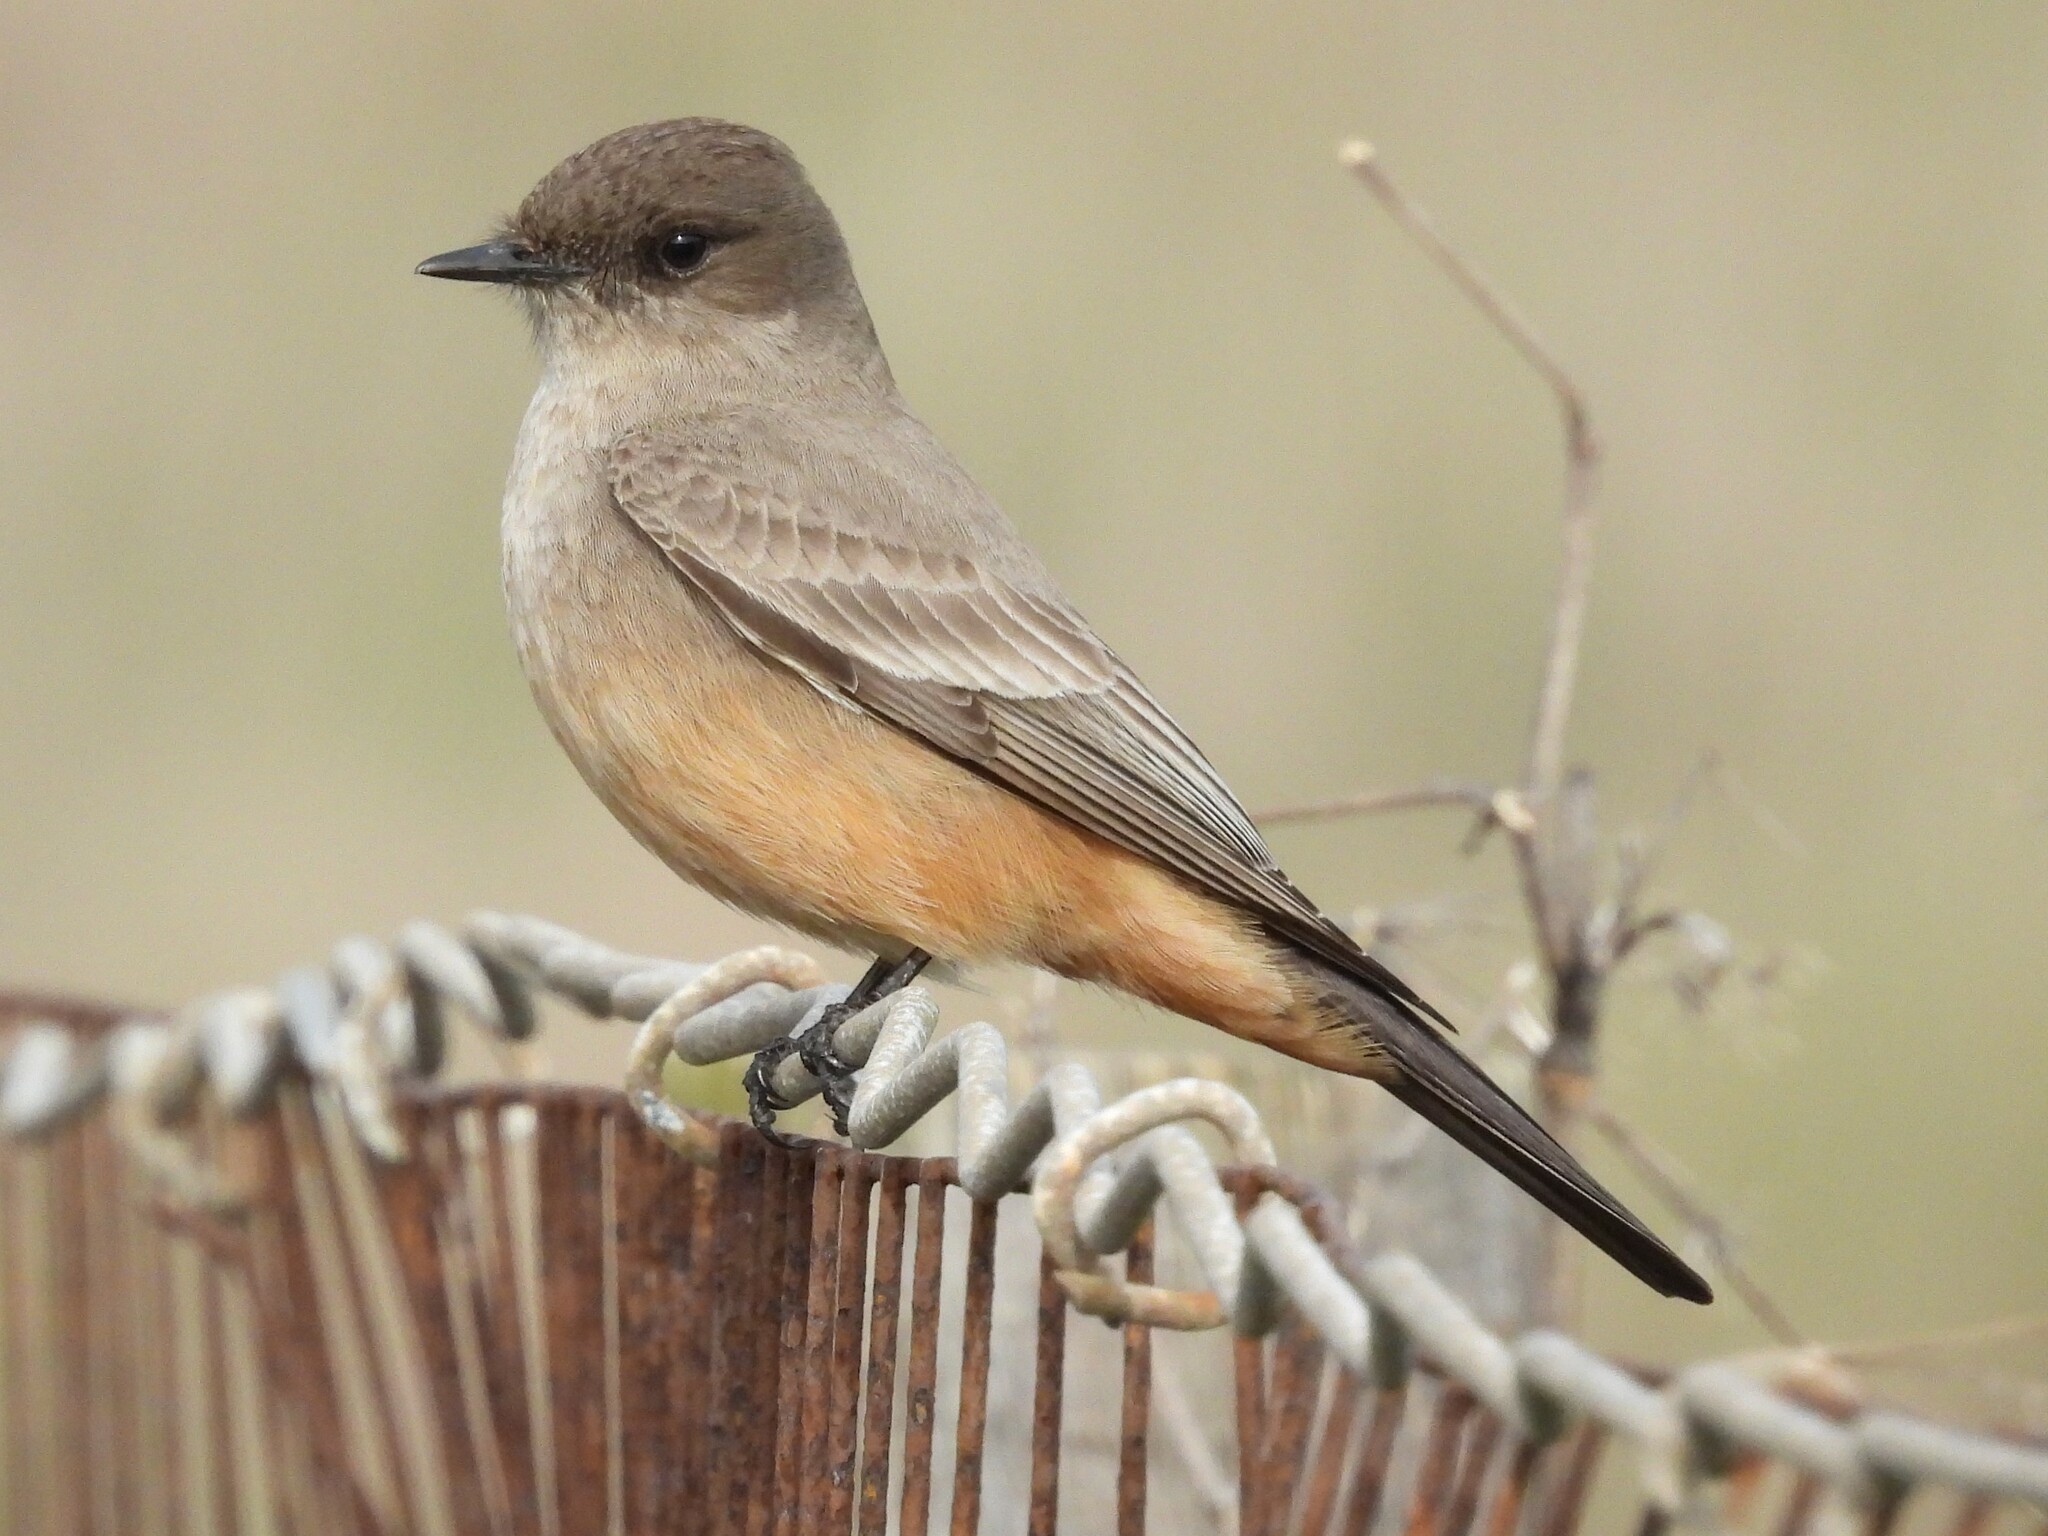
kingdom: Animalia
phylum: Chordata
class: Aves
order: Passeriformes
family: Tyrannidae
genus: Sayornis
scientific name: Sayornis saya
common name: Say's phoebe
